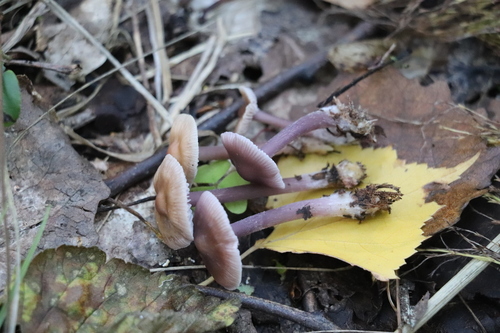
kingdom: Fungi
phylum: Basidiomycota
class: Agaricomycetes
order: Agaricales
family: Mycenaceae
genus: Mycena
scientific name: Mycena pura
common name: Lilac bonnet
